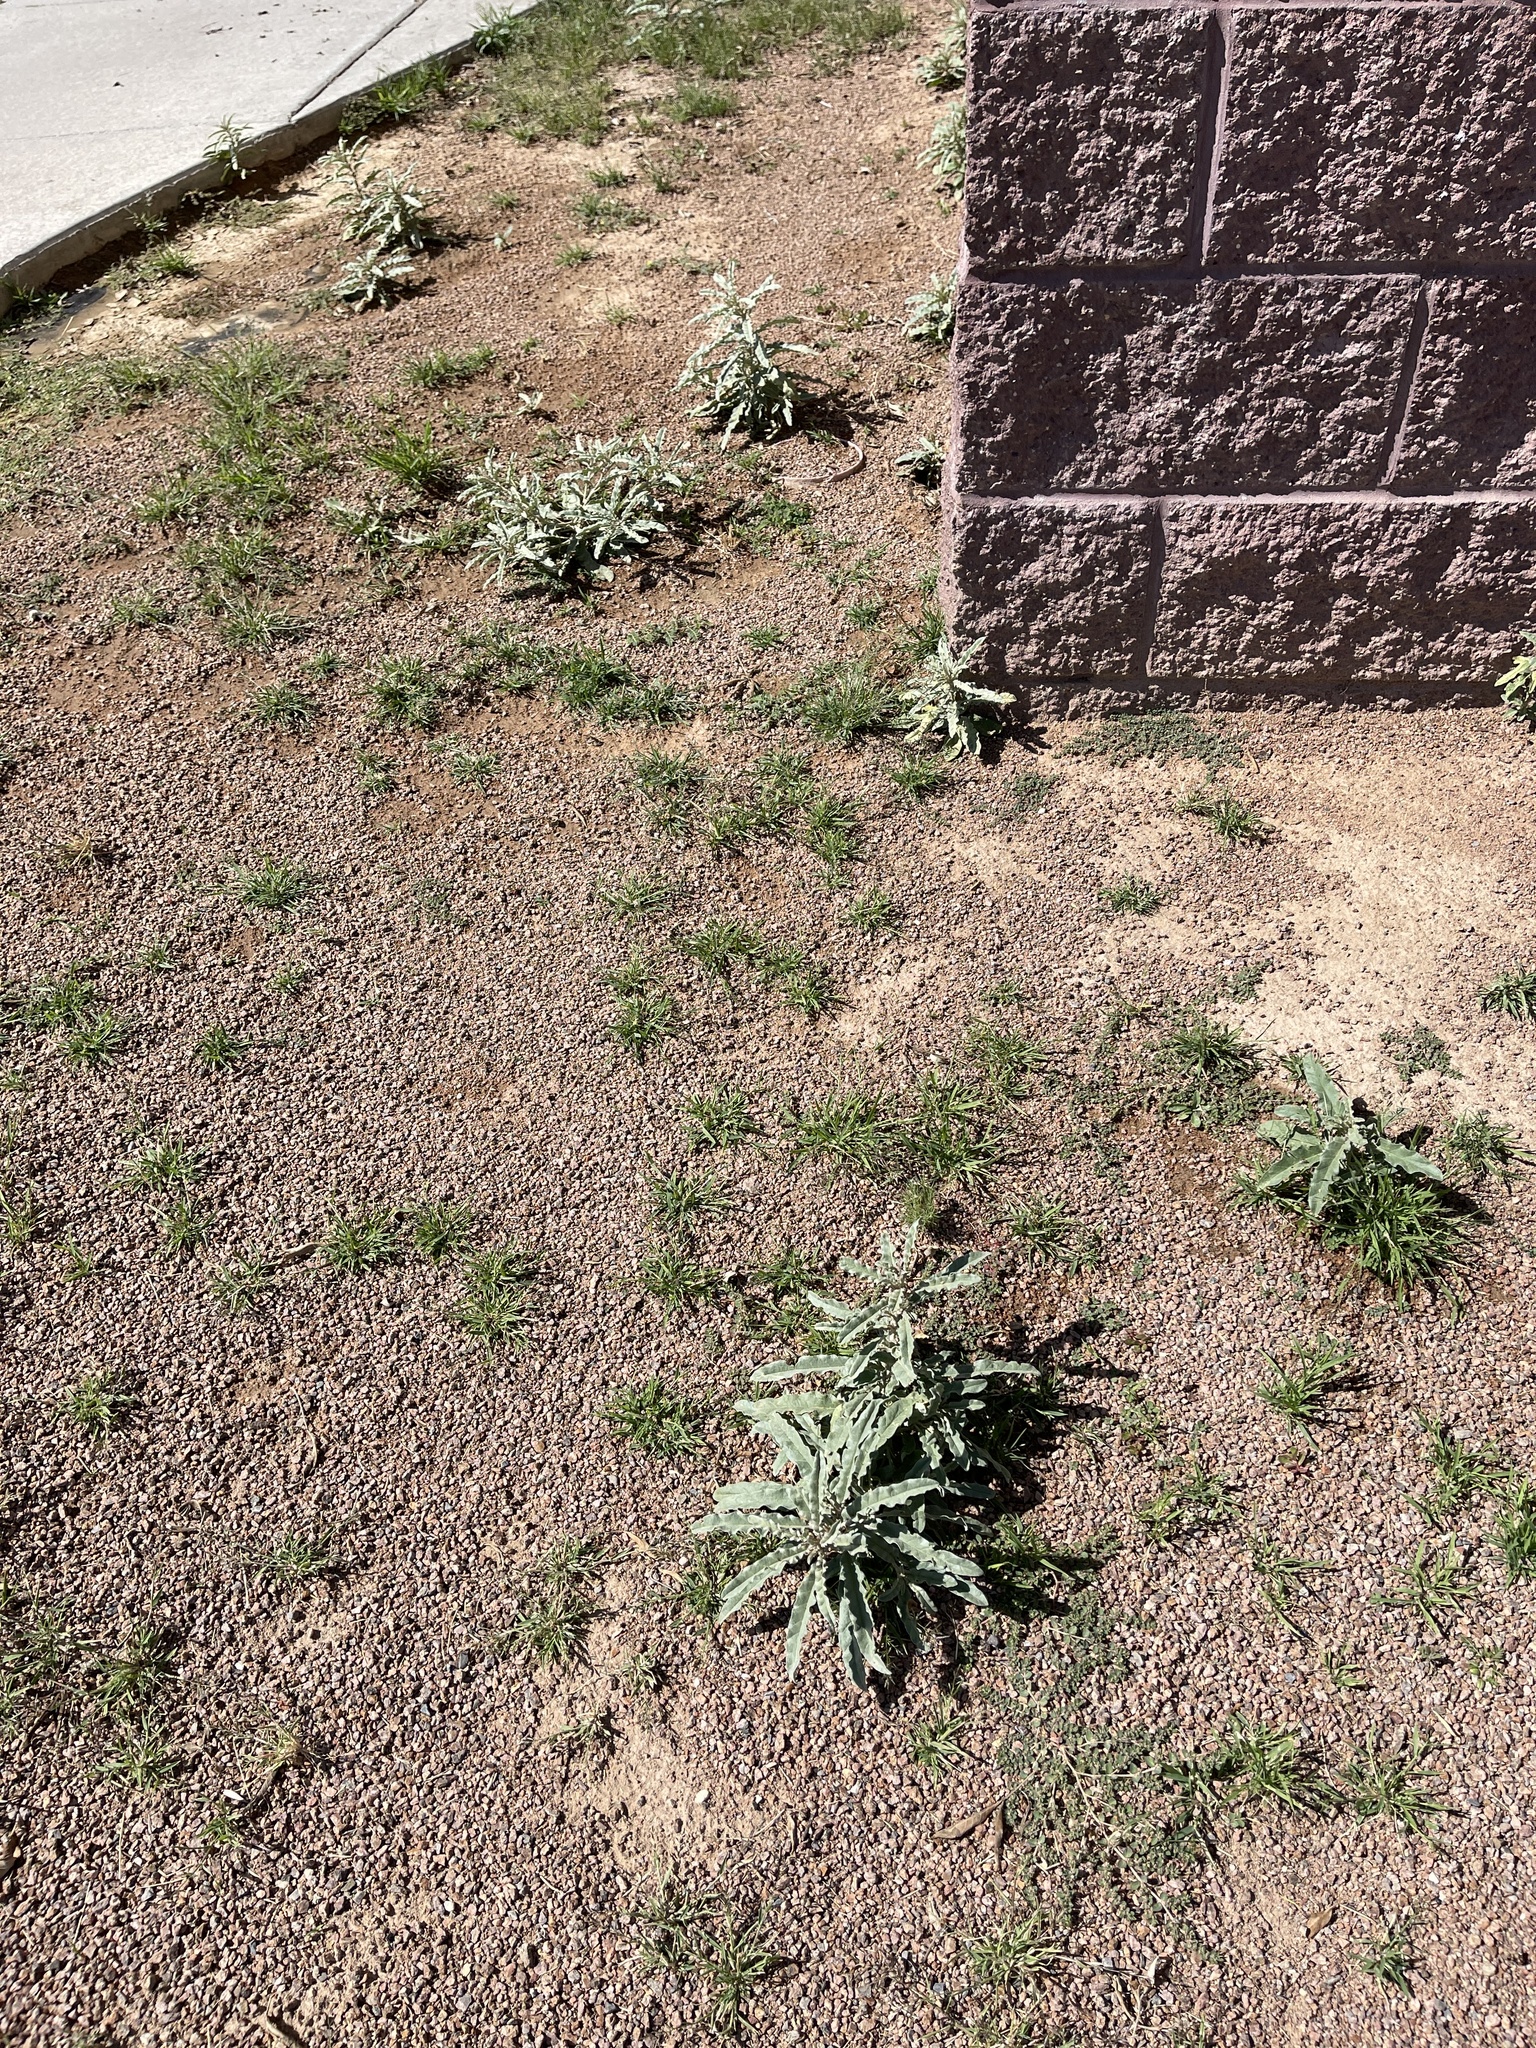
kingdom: Plantae
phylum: Tracheophyta
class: Magnoliopsida
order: Solanales
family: Solanaceae
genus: Solanum
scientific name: Solanum elaeagnifolium
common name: Silverleaf nightshade
